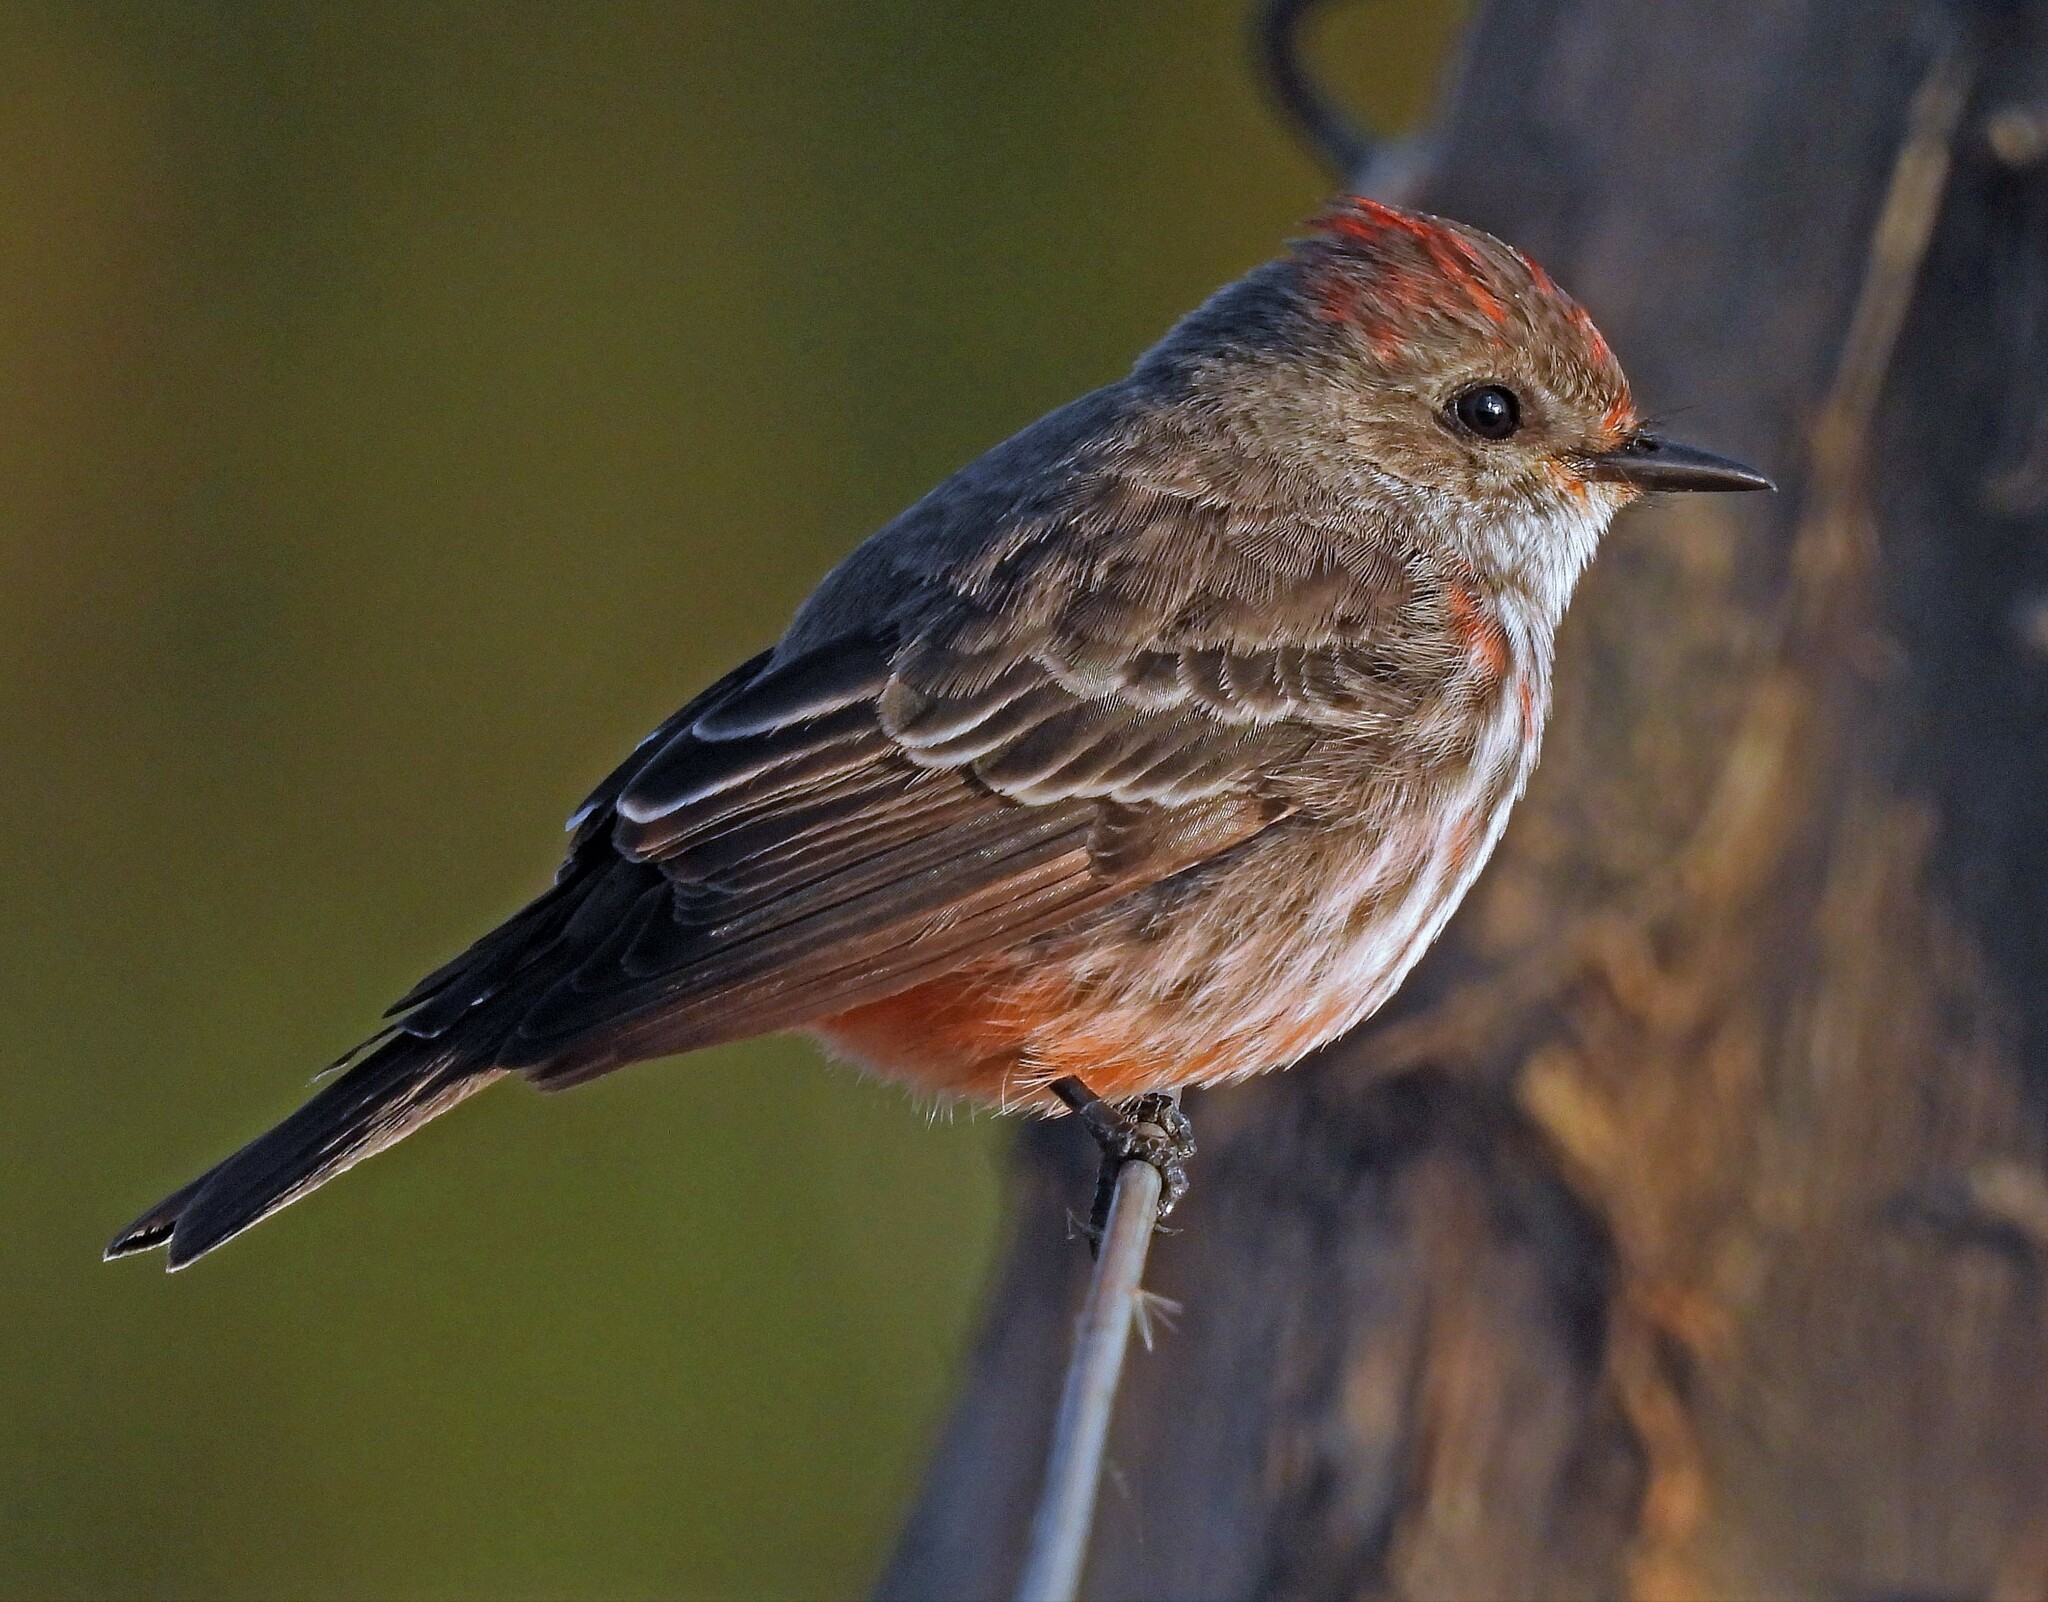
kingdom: Animalia
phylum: Chordata
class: Aves
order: Passeriformes
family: Tyrannidae
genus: Pyrocephalus
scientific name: Pyrocephalus rubinus
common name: Vermilion flycatcher
